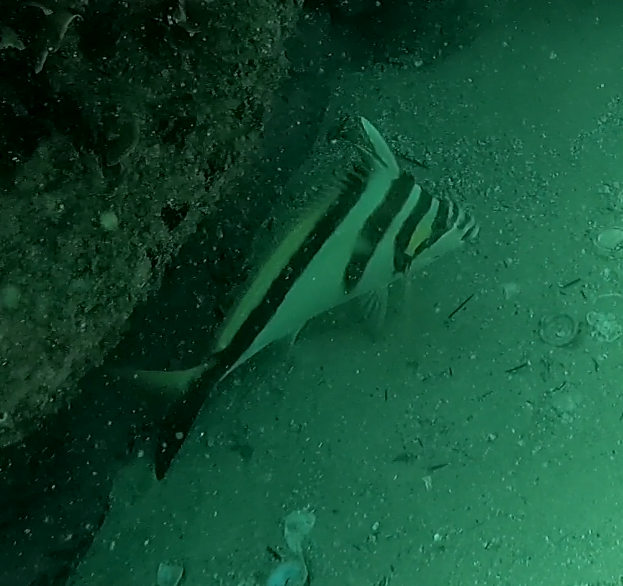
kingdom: Animalia
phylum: Chordata
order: Perciformes
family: Cheilodactylidae
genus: Cheilodactylus
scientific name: Cheilodactylus vestitus
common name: Crested morwong
